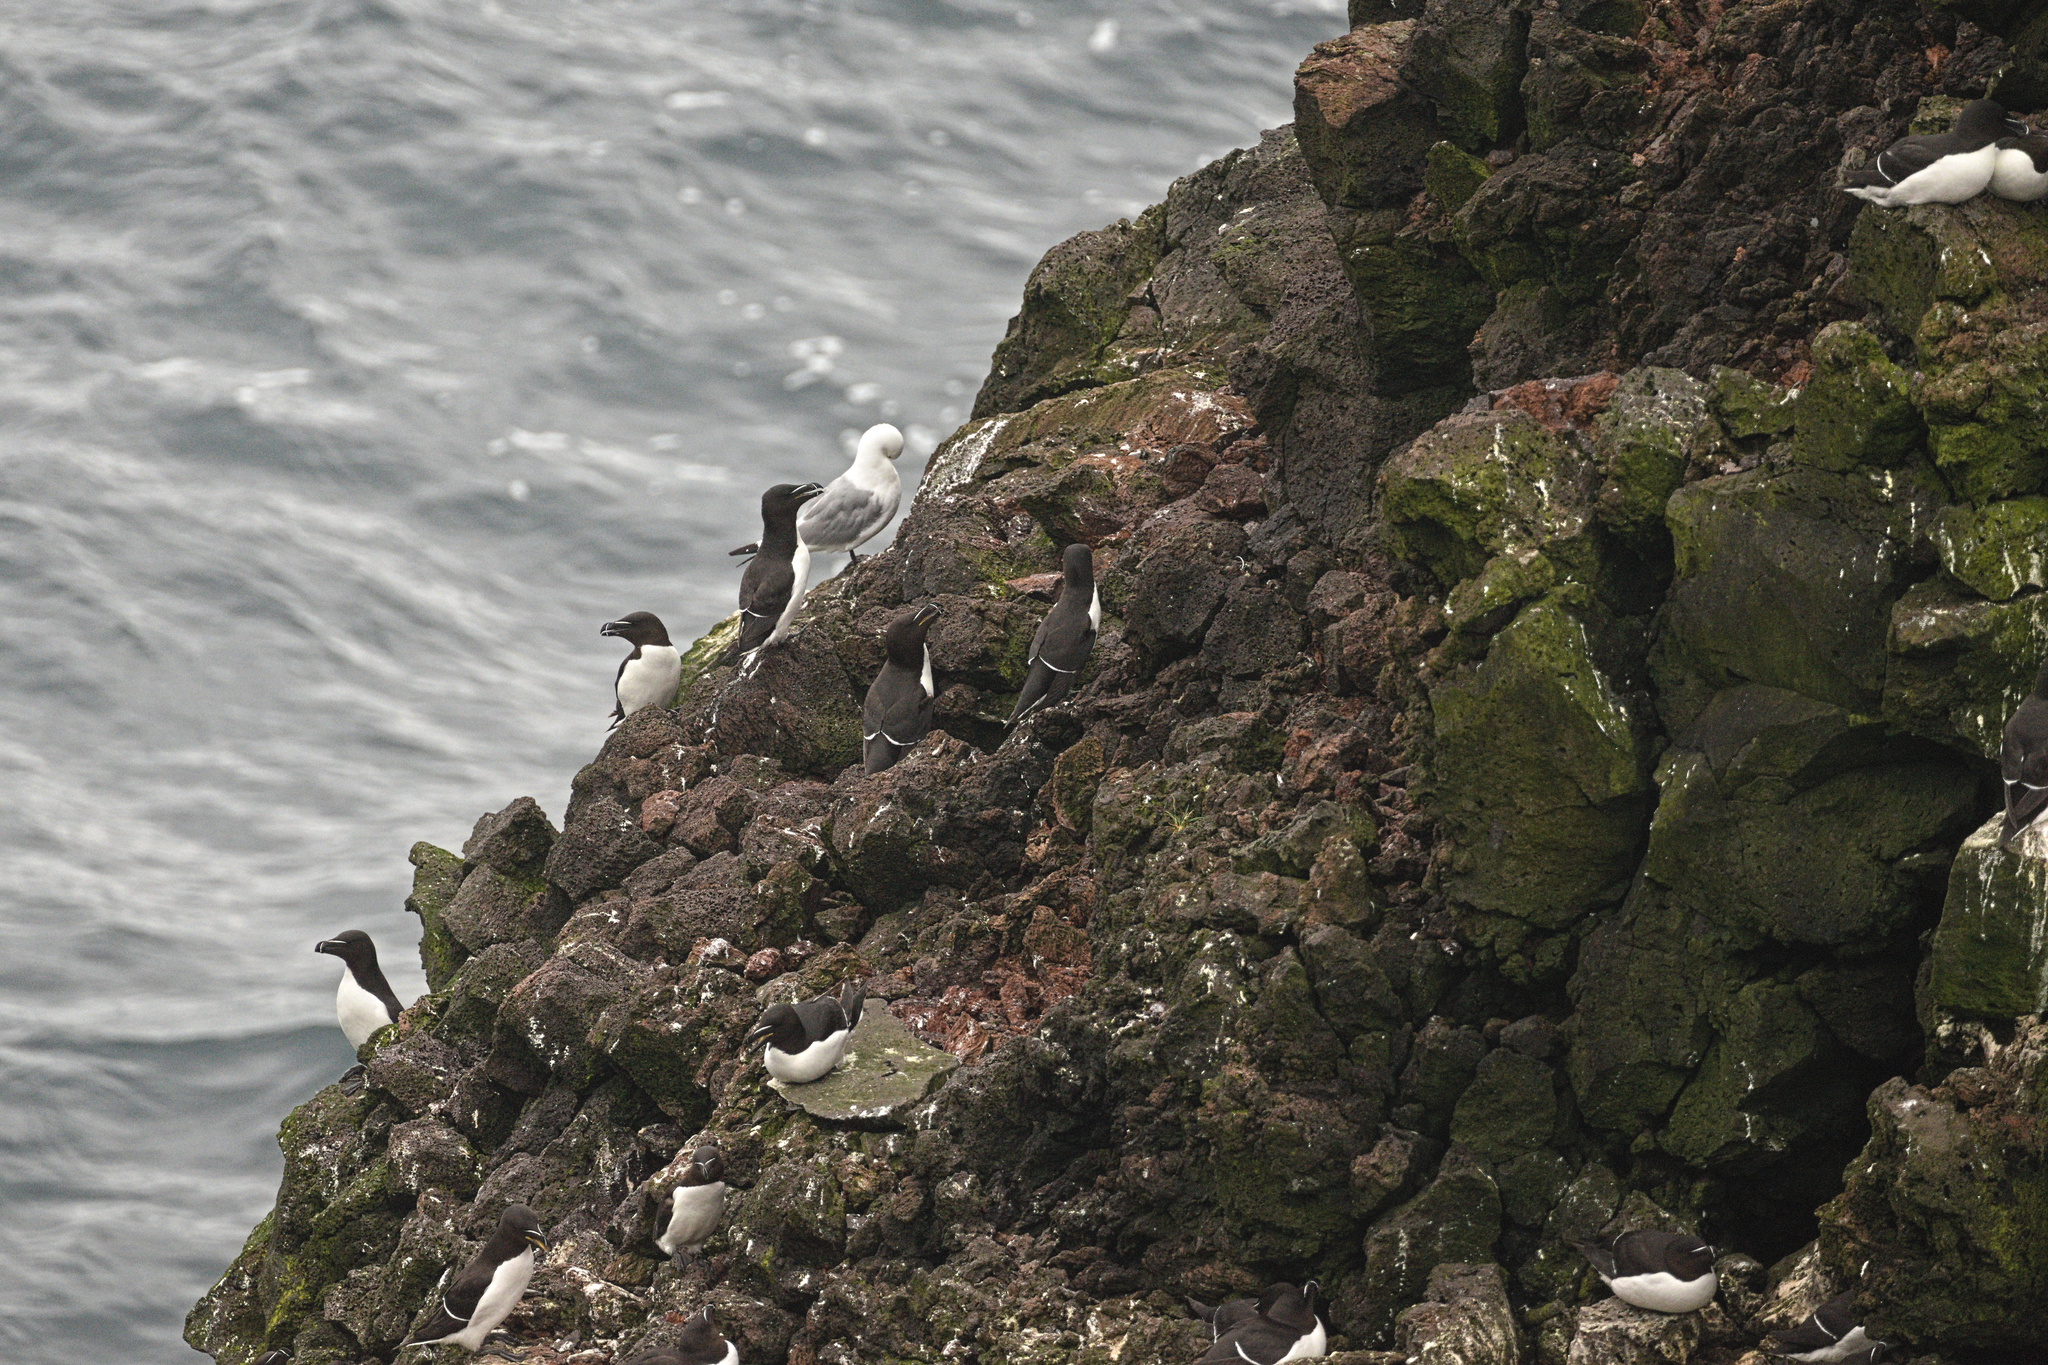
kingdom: Animalia
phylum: Chordata
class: Aves
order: Charadriiformes
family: Alcidae
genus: Alca
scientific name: Alca torda
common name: Razorbill
